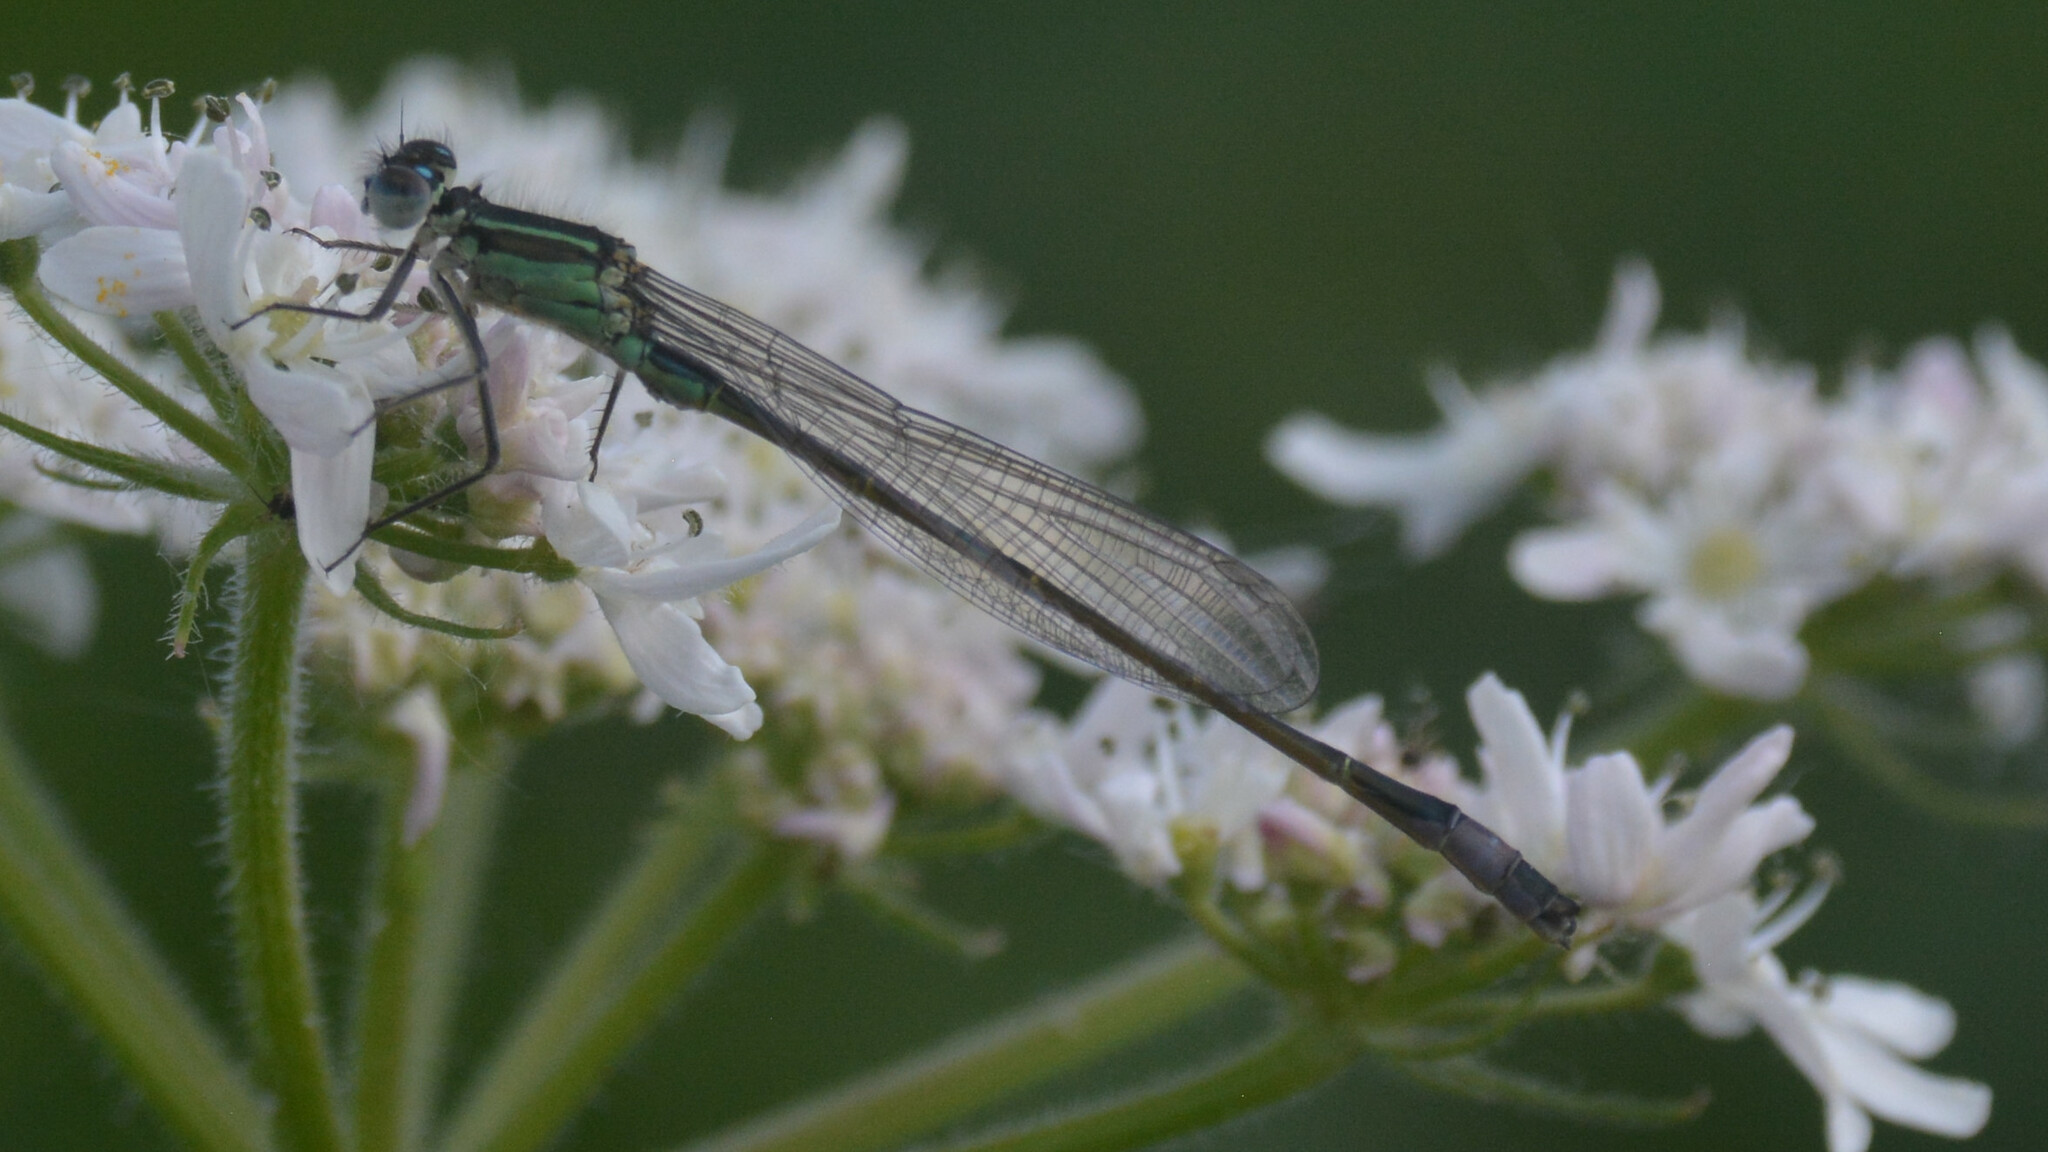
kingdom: Animalia
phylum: Arthropoda
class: Insecta
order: Odonata
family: Coenagrionidae
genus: Ischnura
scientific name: Ischnura elegans
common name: Blue-tailed damselfly
